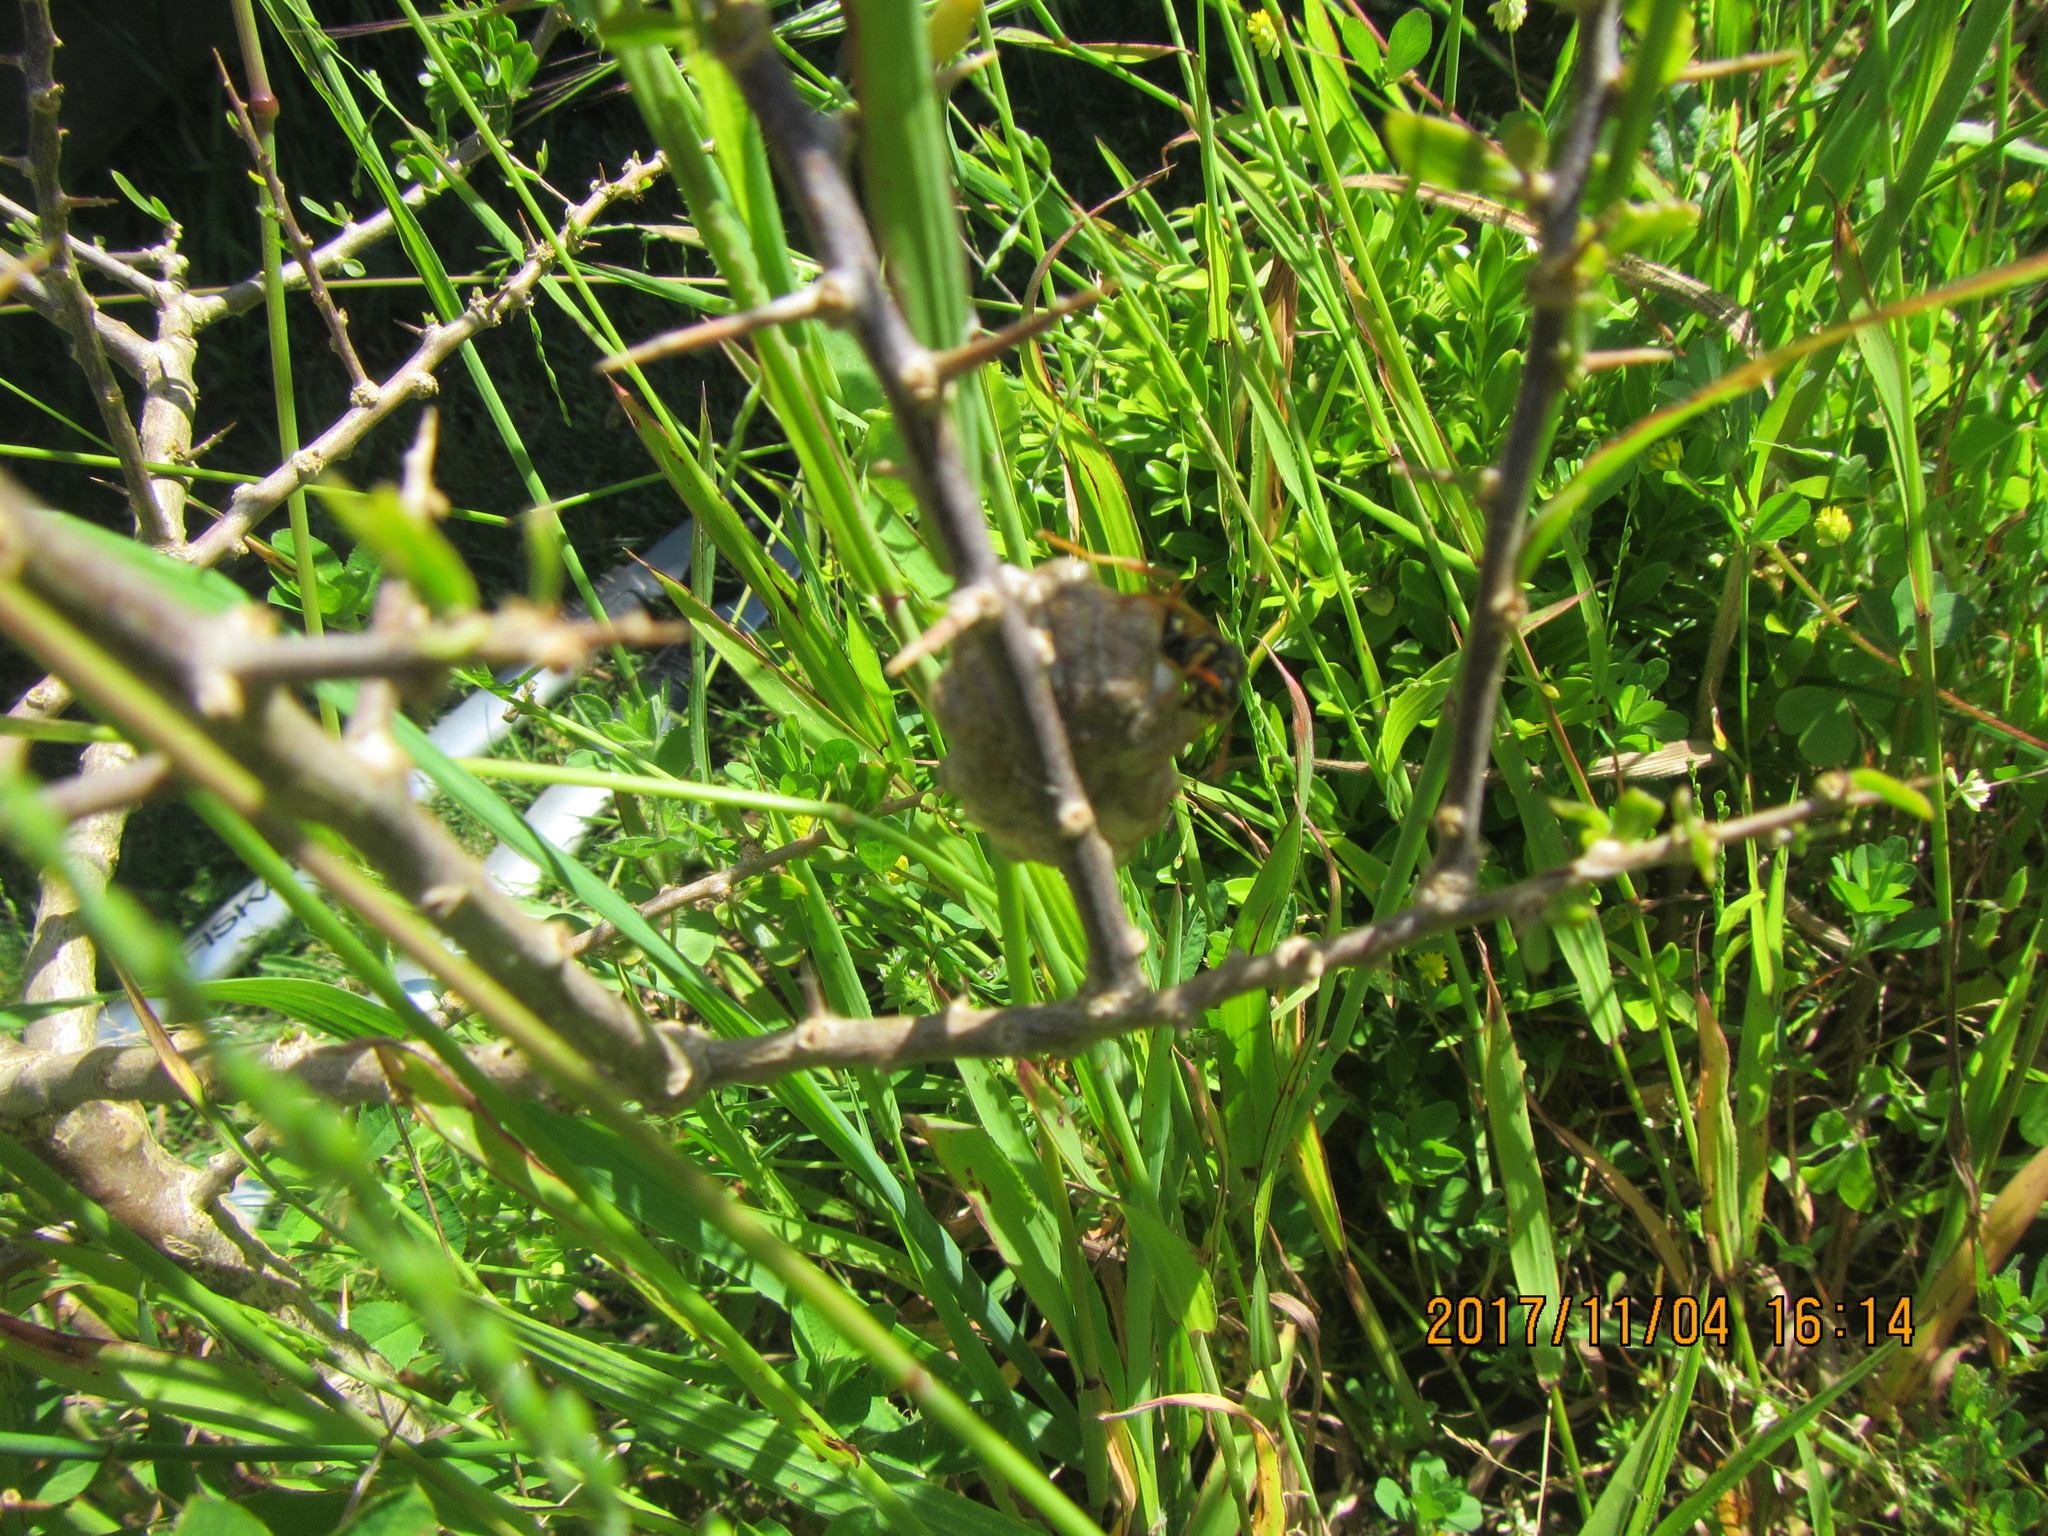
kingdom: Animalia
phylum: Arthropoda
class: Insecta
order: Hymenoptera
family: Eumenidae
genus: Polistes
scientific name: Polistes chinensis
